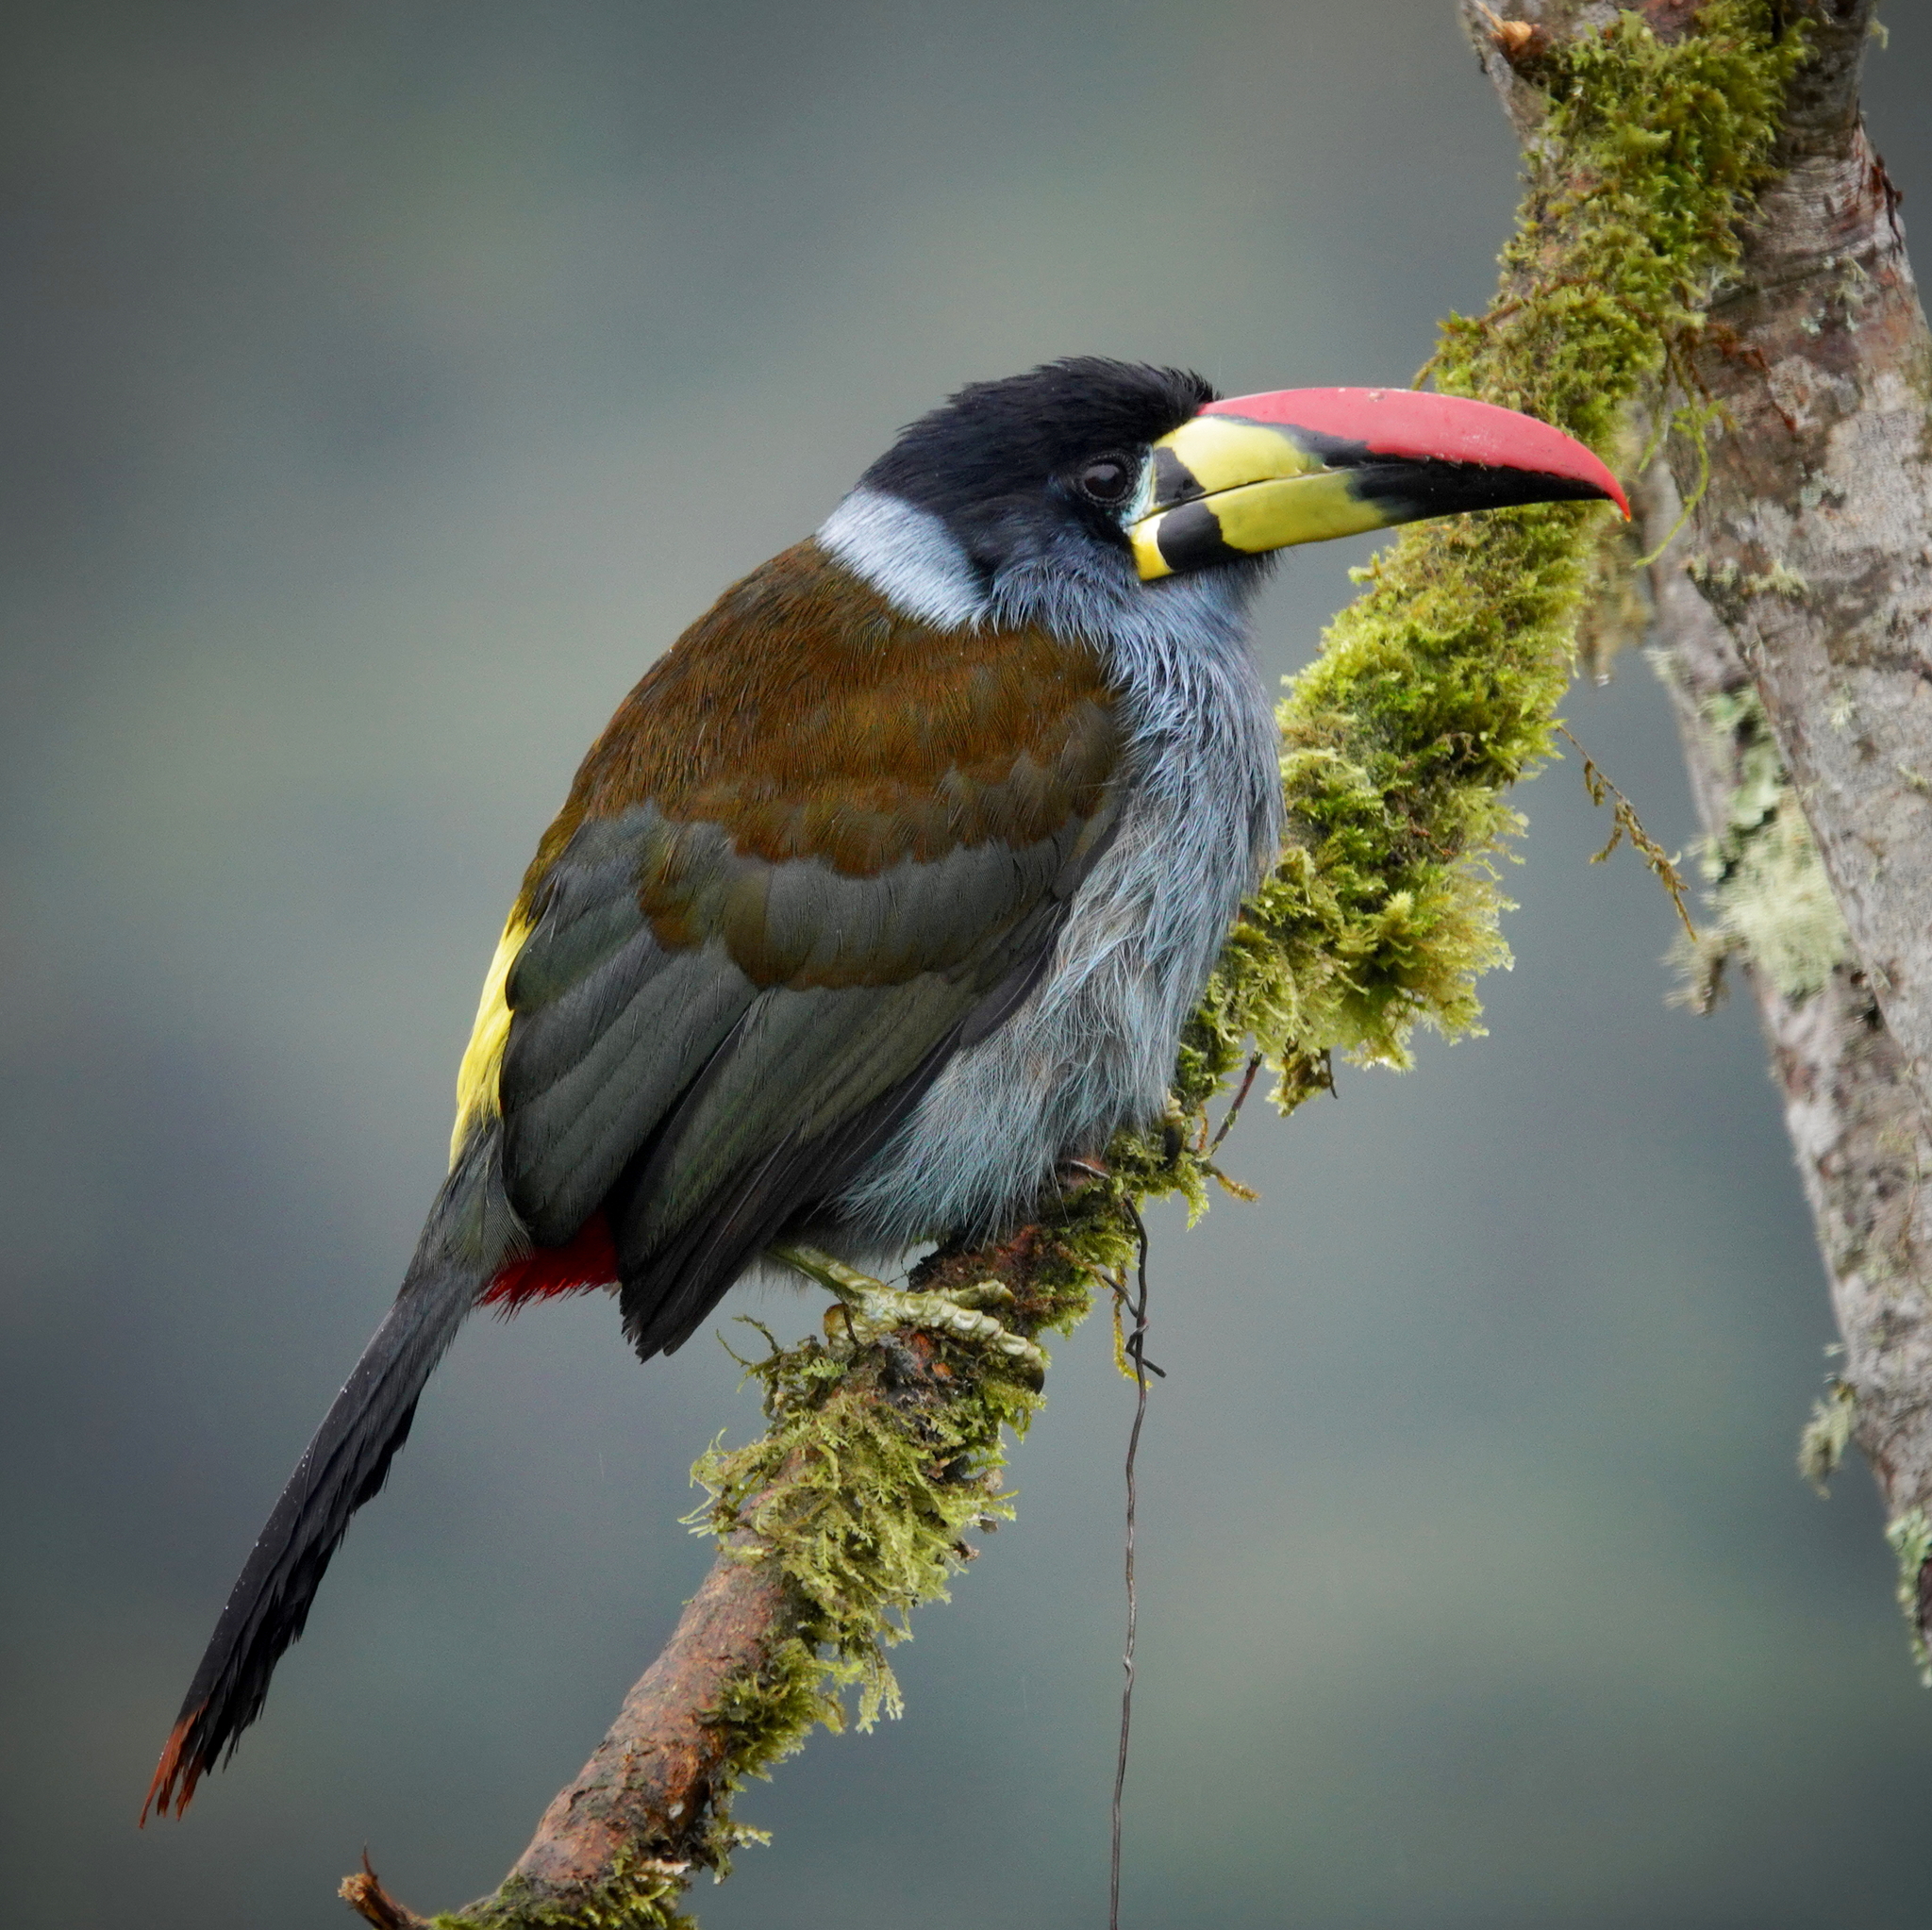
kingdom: Animalia
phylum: Chordata
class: Aves
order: Piciformes
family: Ramphastidae
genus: Andigena
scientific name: Andigena hypoglauca
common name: Grey-breasted mountain toucan
